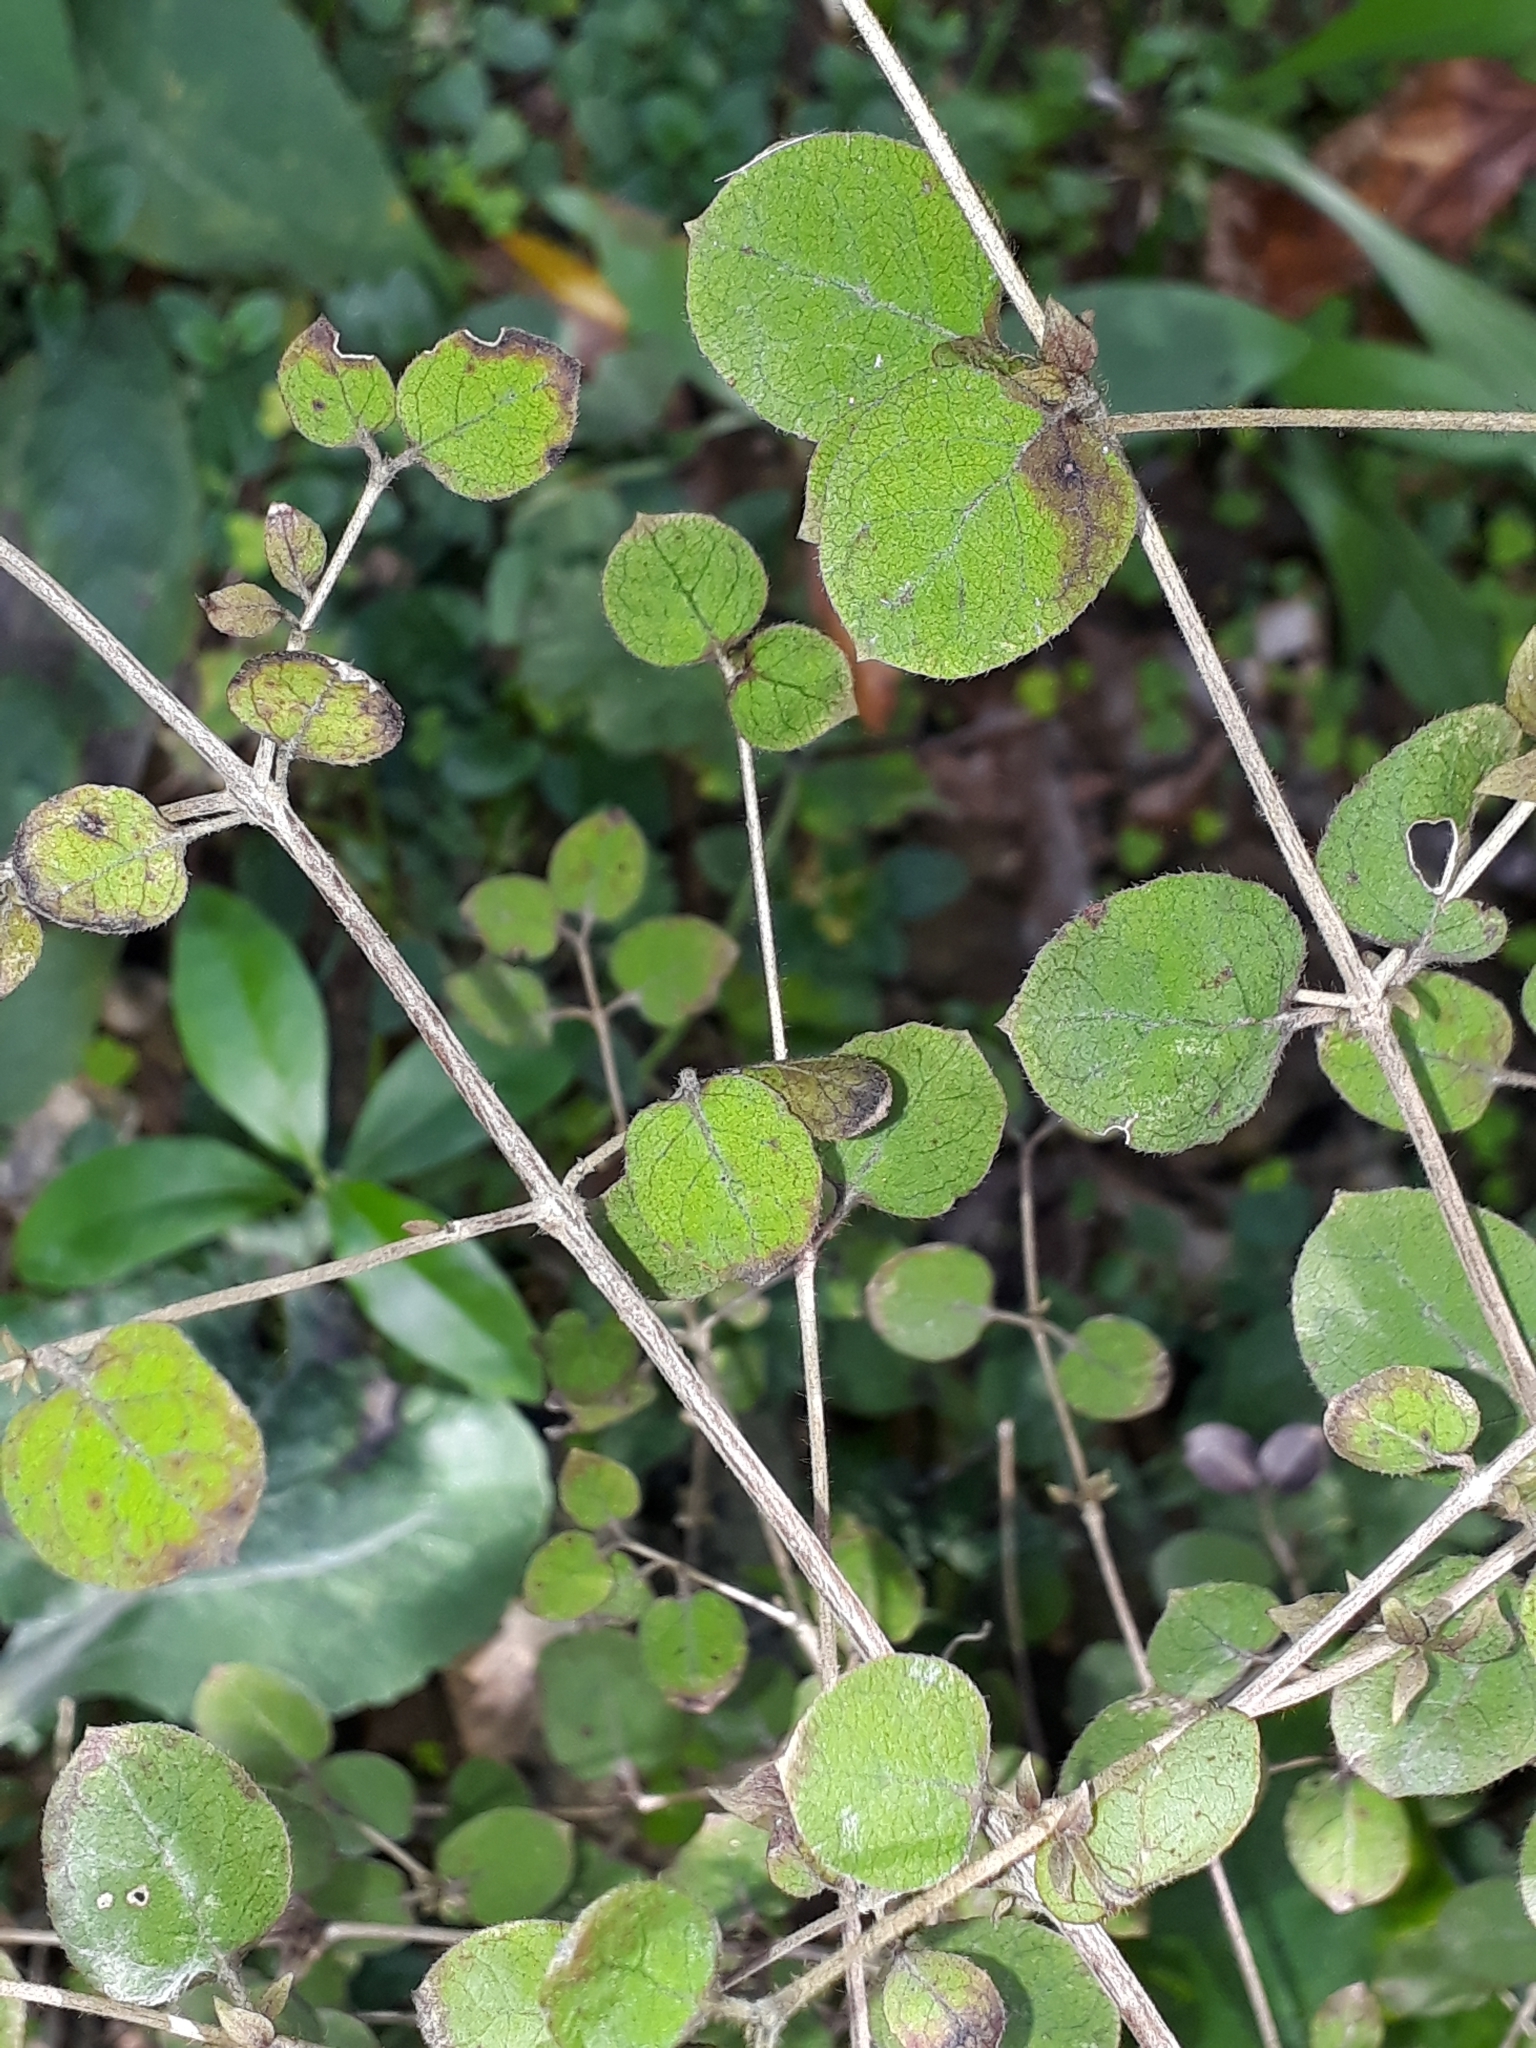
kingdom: Plantae
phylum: Tracheophyta
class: Magnoliopsida
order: Gentianales
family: Rubiaceae
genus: Coprosma
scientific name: Coprosma rotundifolia
